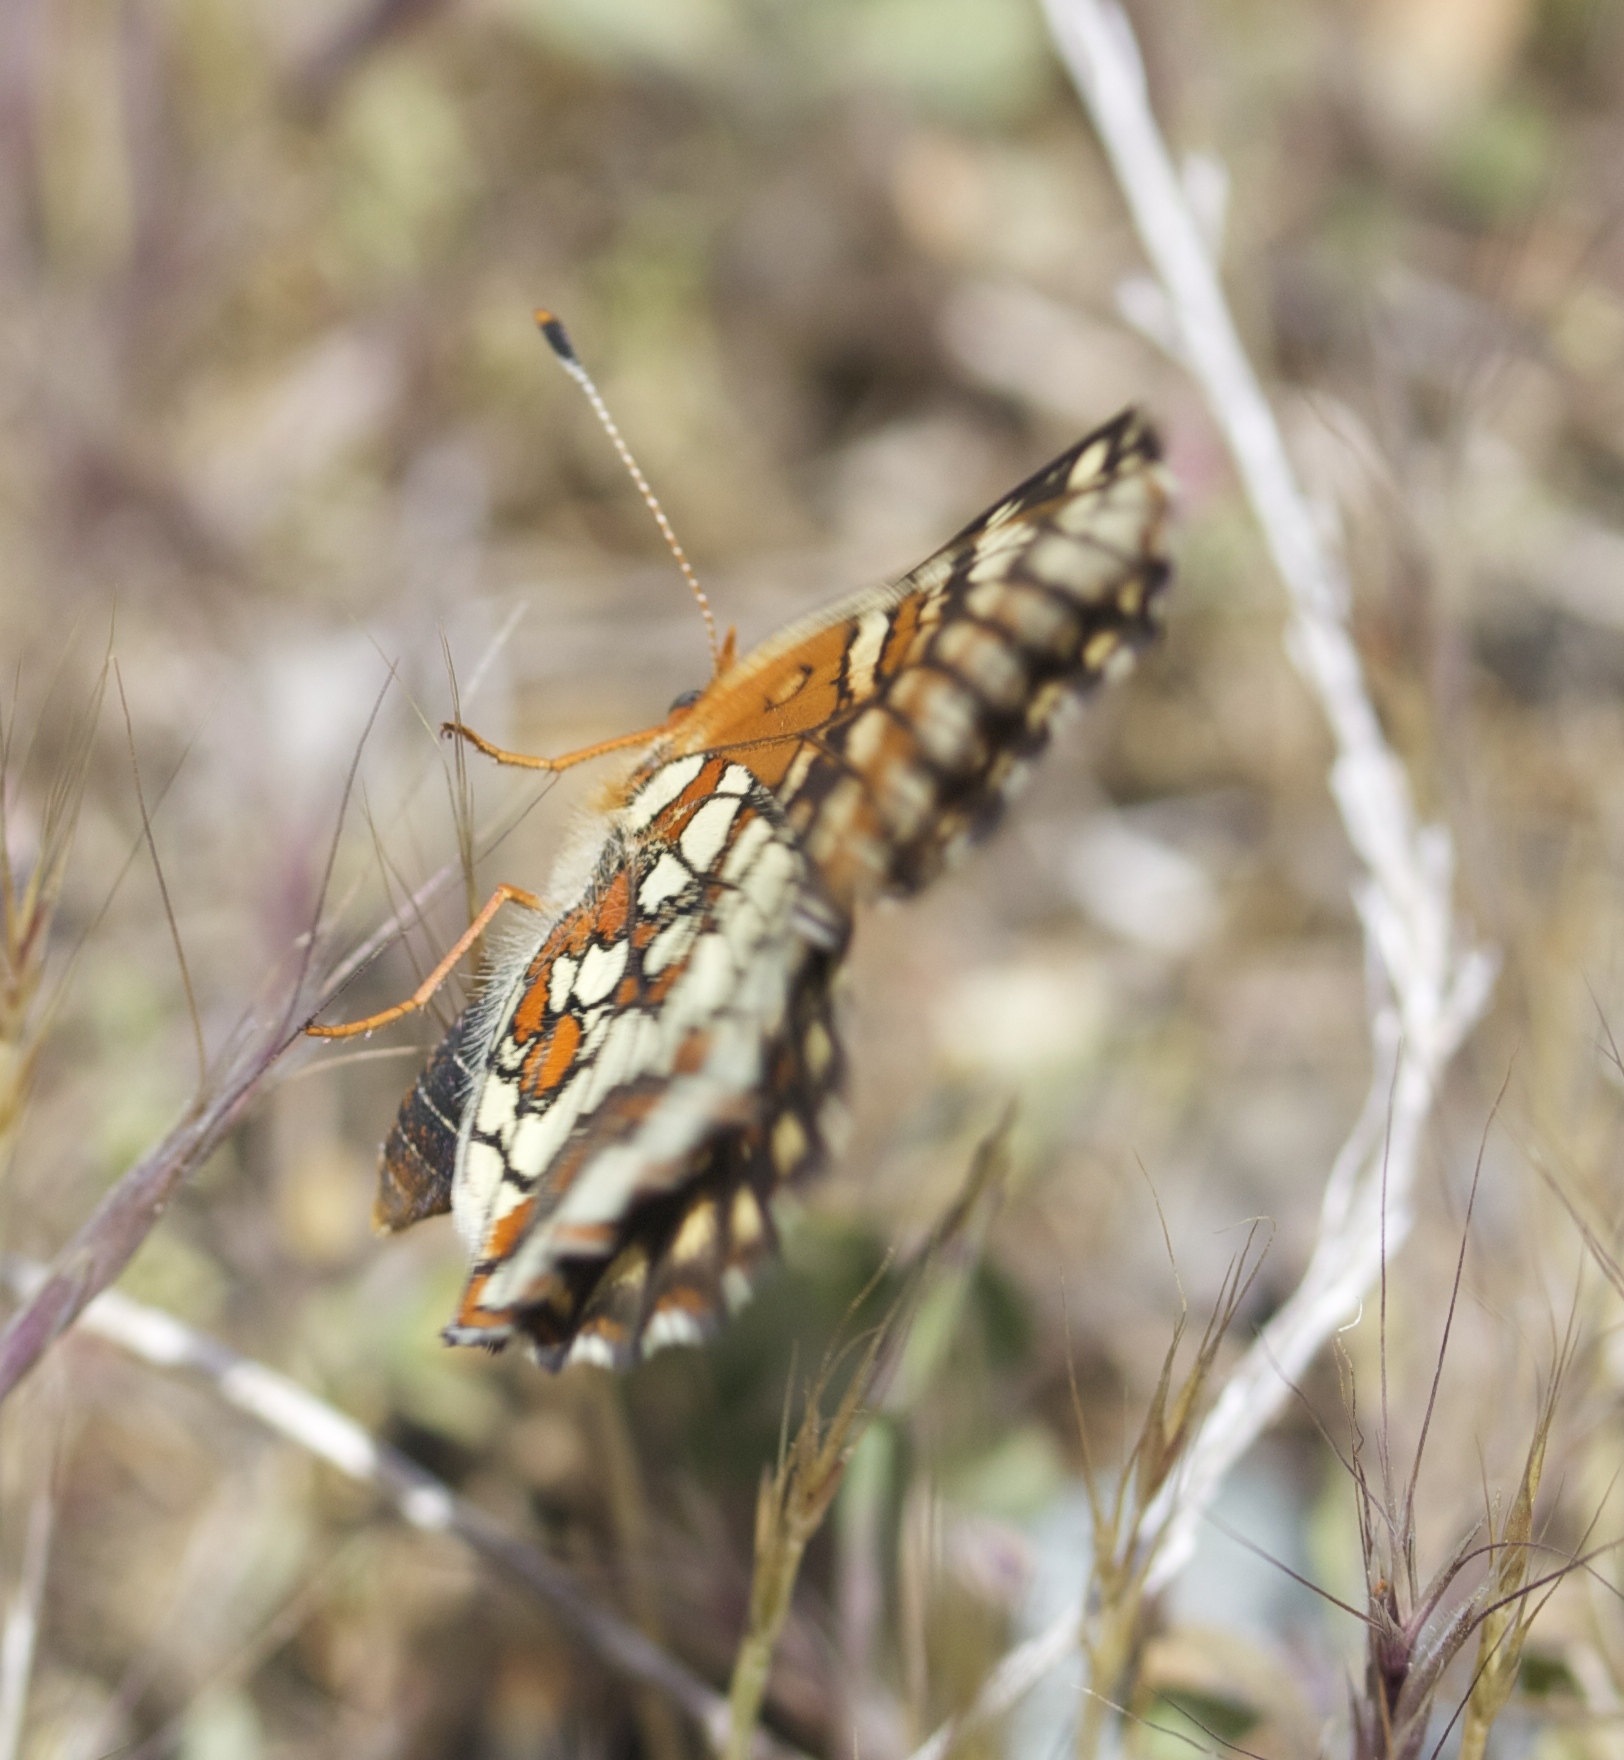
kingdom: Animalia
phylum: Arthropoda
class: Insecta
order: Lepidoptera
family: Nymphalidae
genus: Chlosyne
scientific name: Chlosyne palla
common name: Northern checkerspot
